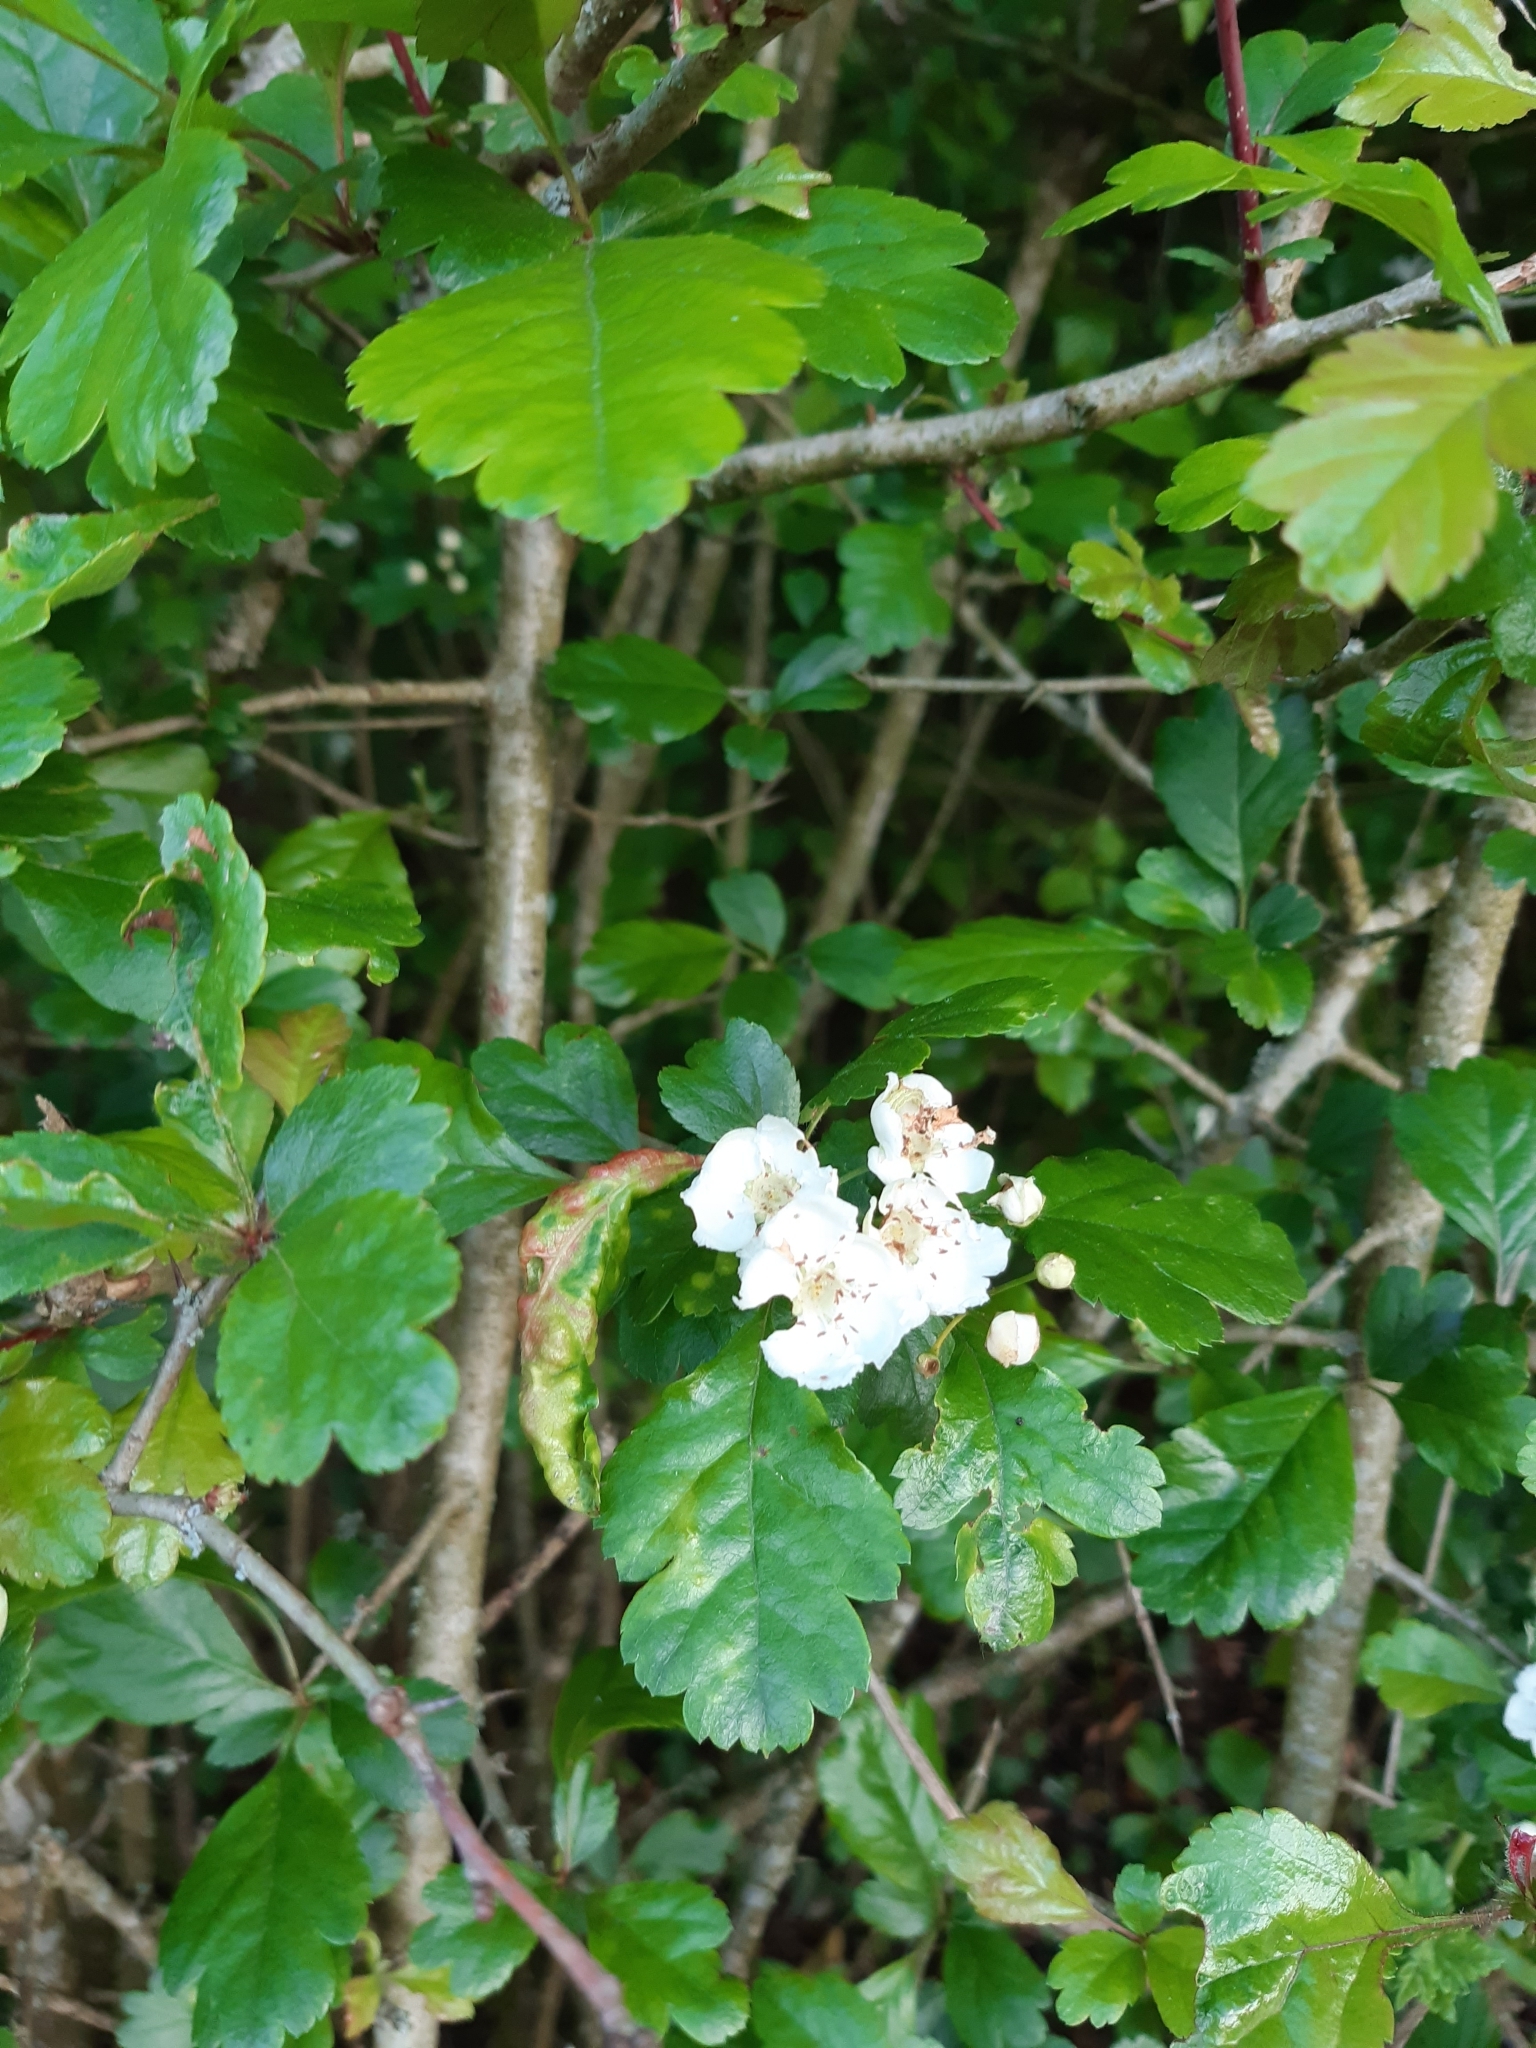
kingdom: Plantae
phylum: Tracheophyta
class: Magnoliopsida
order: Rosales
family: Rosaceae
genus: Crataegus
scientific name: Crataegus laevigata
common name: Midland hawthorn
